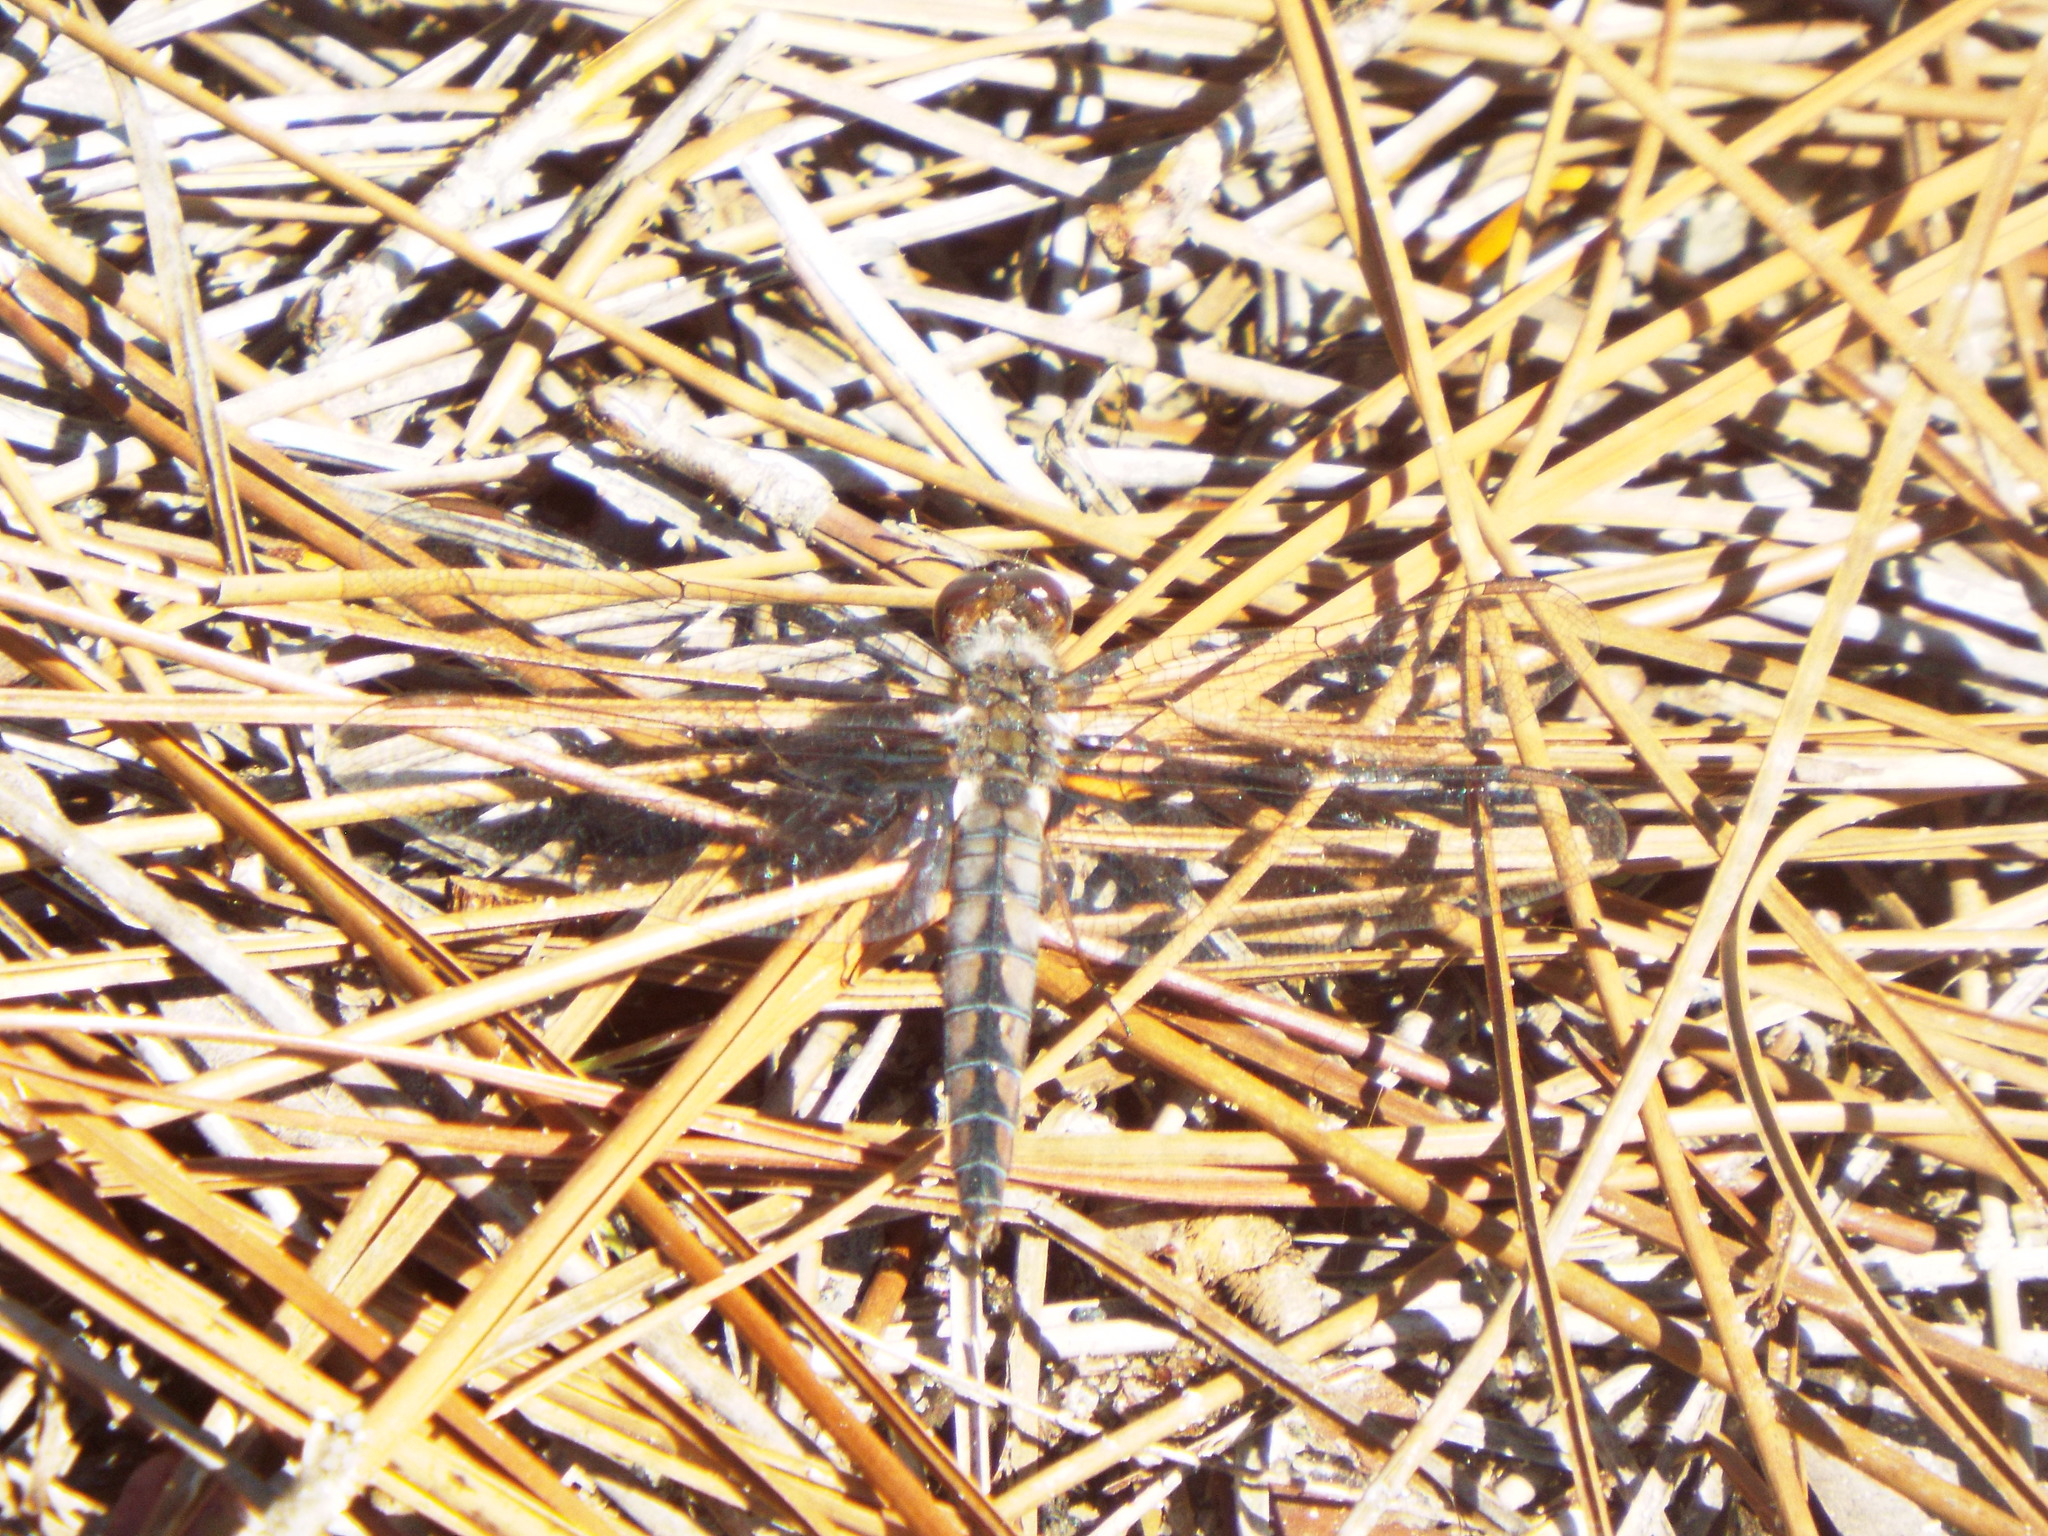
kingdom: Animalia
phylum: Arthropoda
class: Insecta
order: Odonata
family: Libellulidae
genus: Ladona
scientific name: Ladona deplanata
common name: Blue corporal
